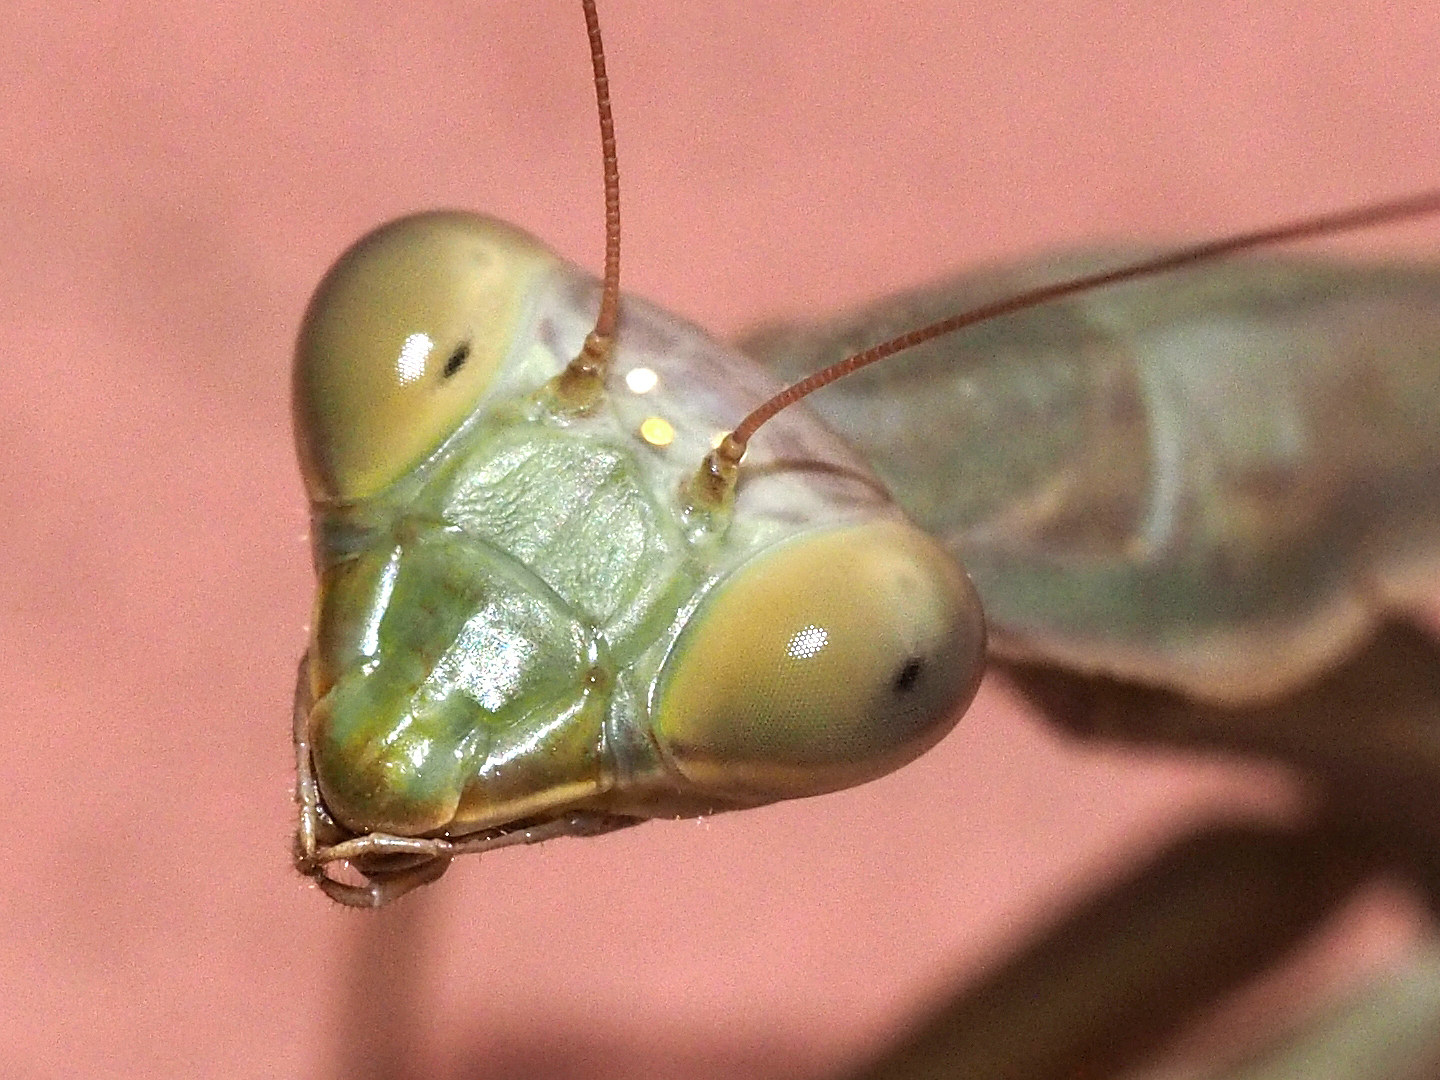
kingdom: Animalia
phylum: Arthropoda
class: Insecta
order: Mantodea
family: Mantidae
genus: Mantis
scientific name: Mantis religiosa
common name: Praying mantis
